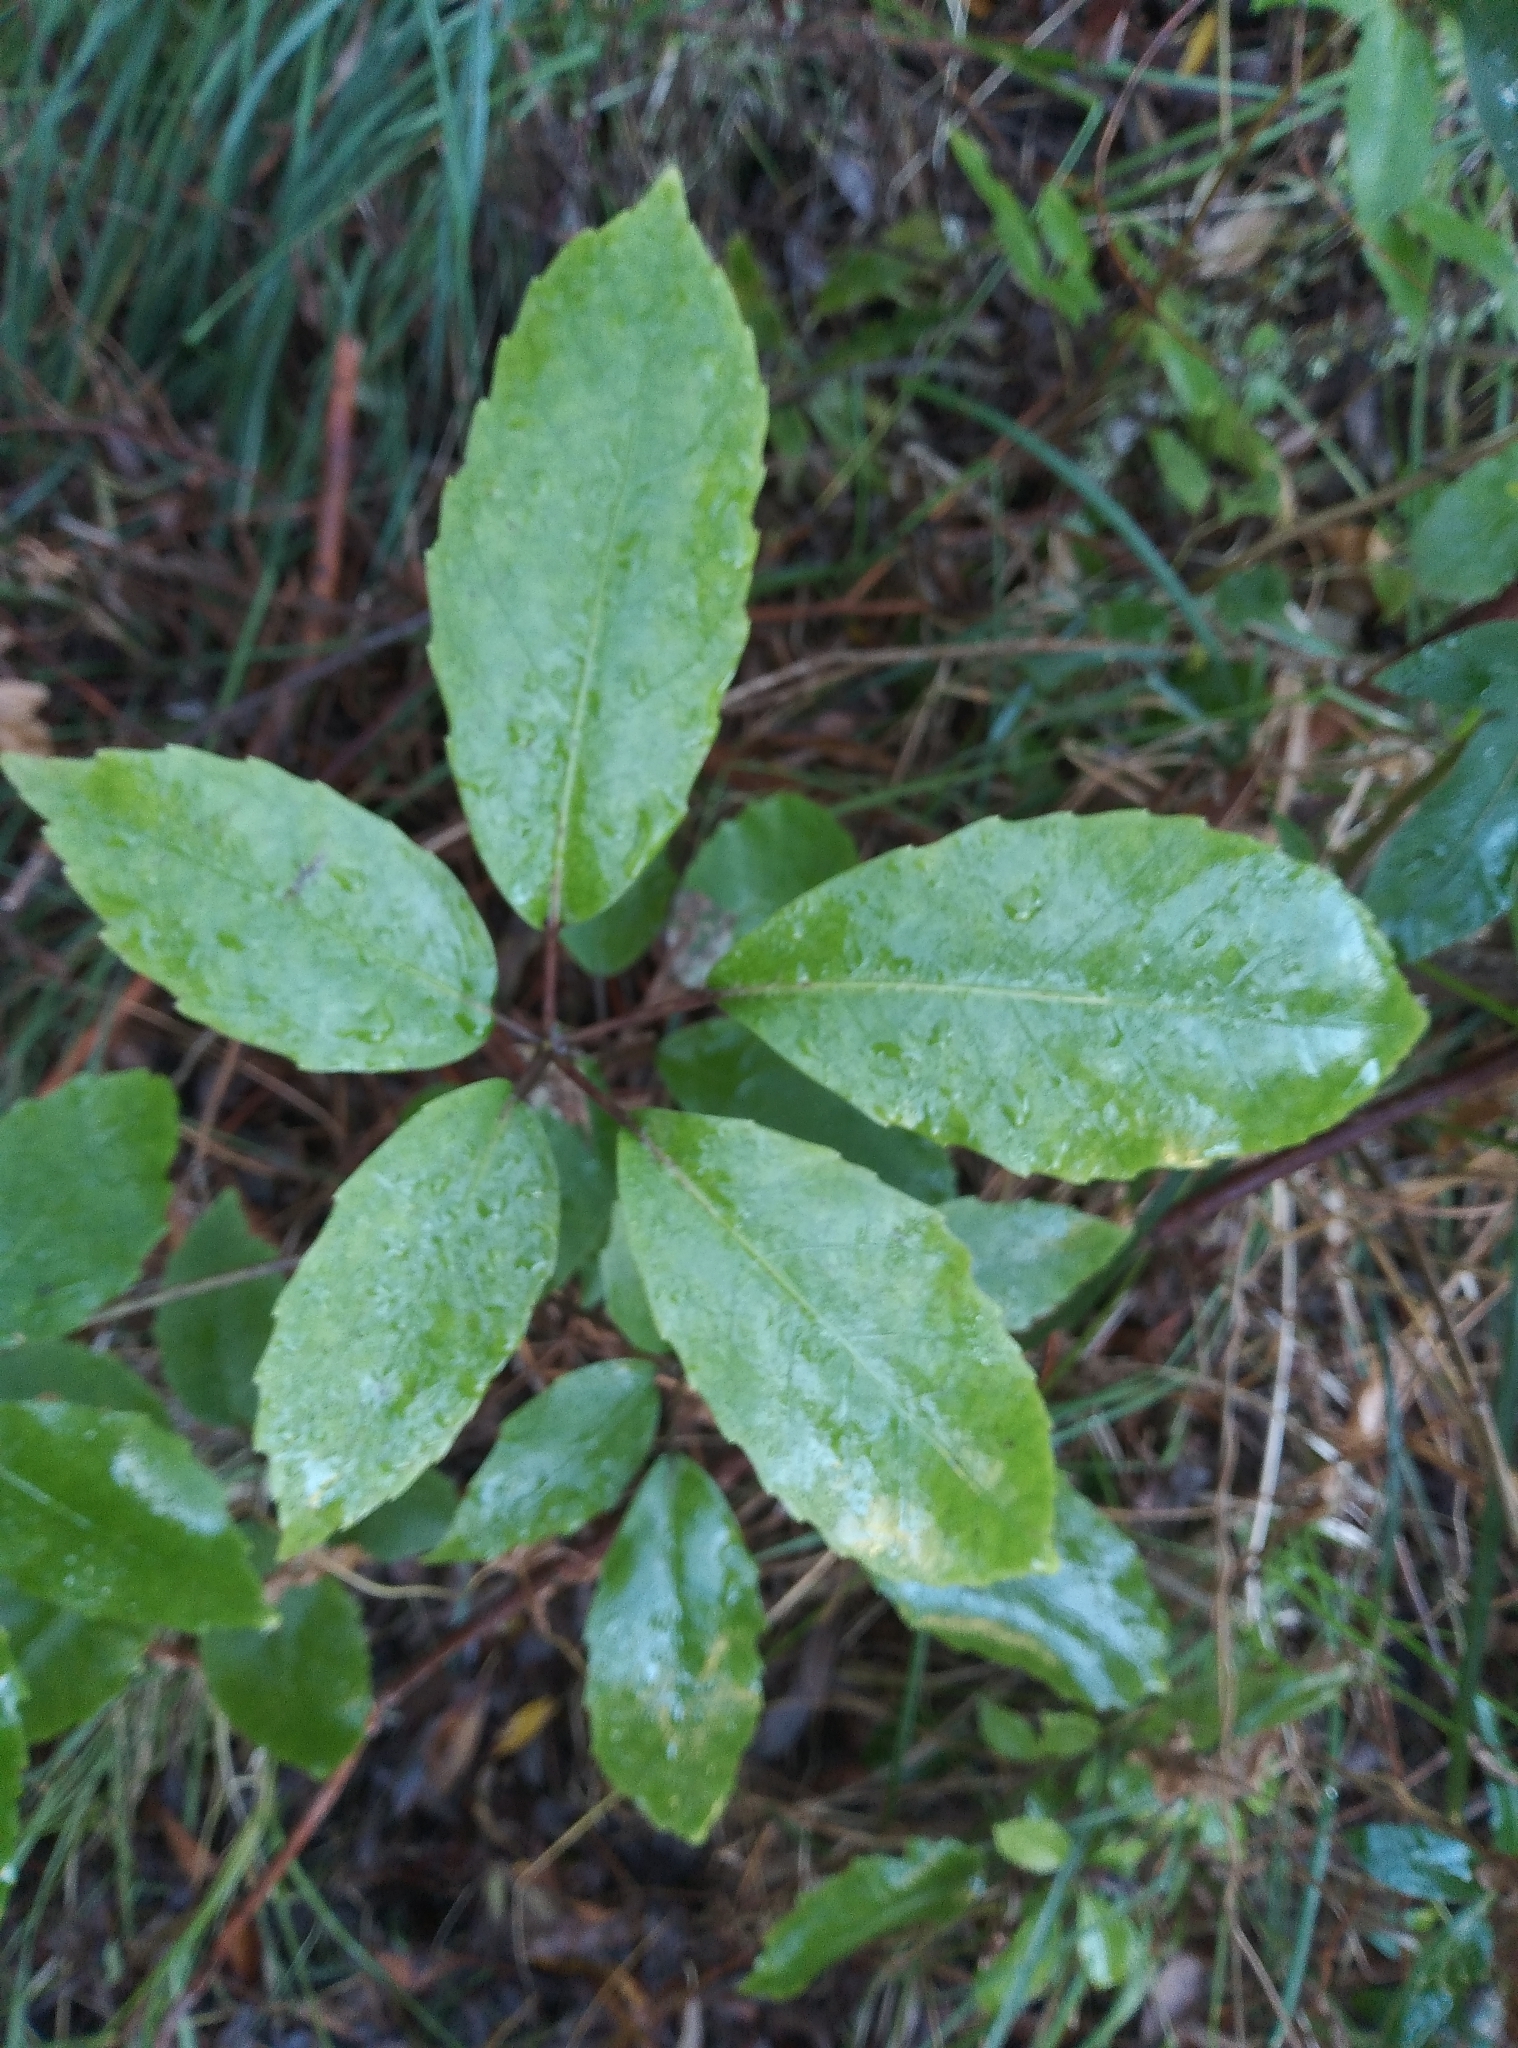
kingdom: Plantae
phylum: Tracheophyta
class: Magnoliopsida
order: Apiales
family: Araliaceae
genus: Neopanax
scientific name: Neopanax arboreus
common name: Five-fingers
